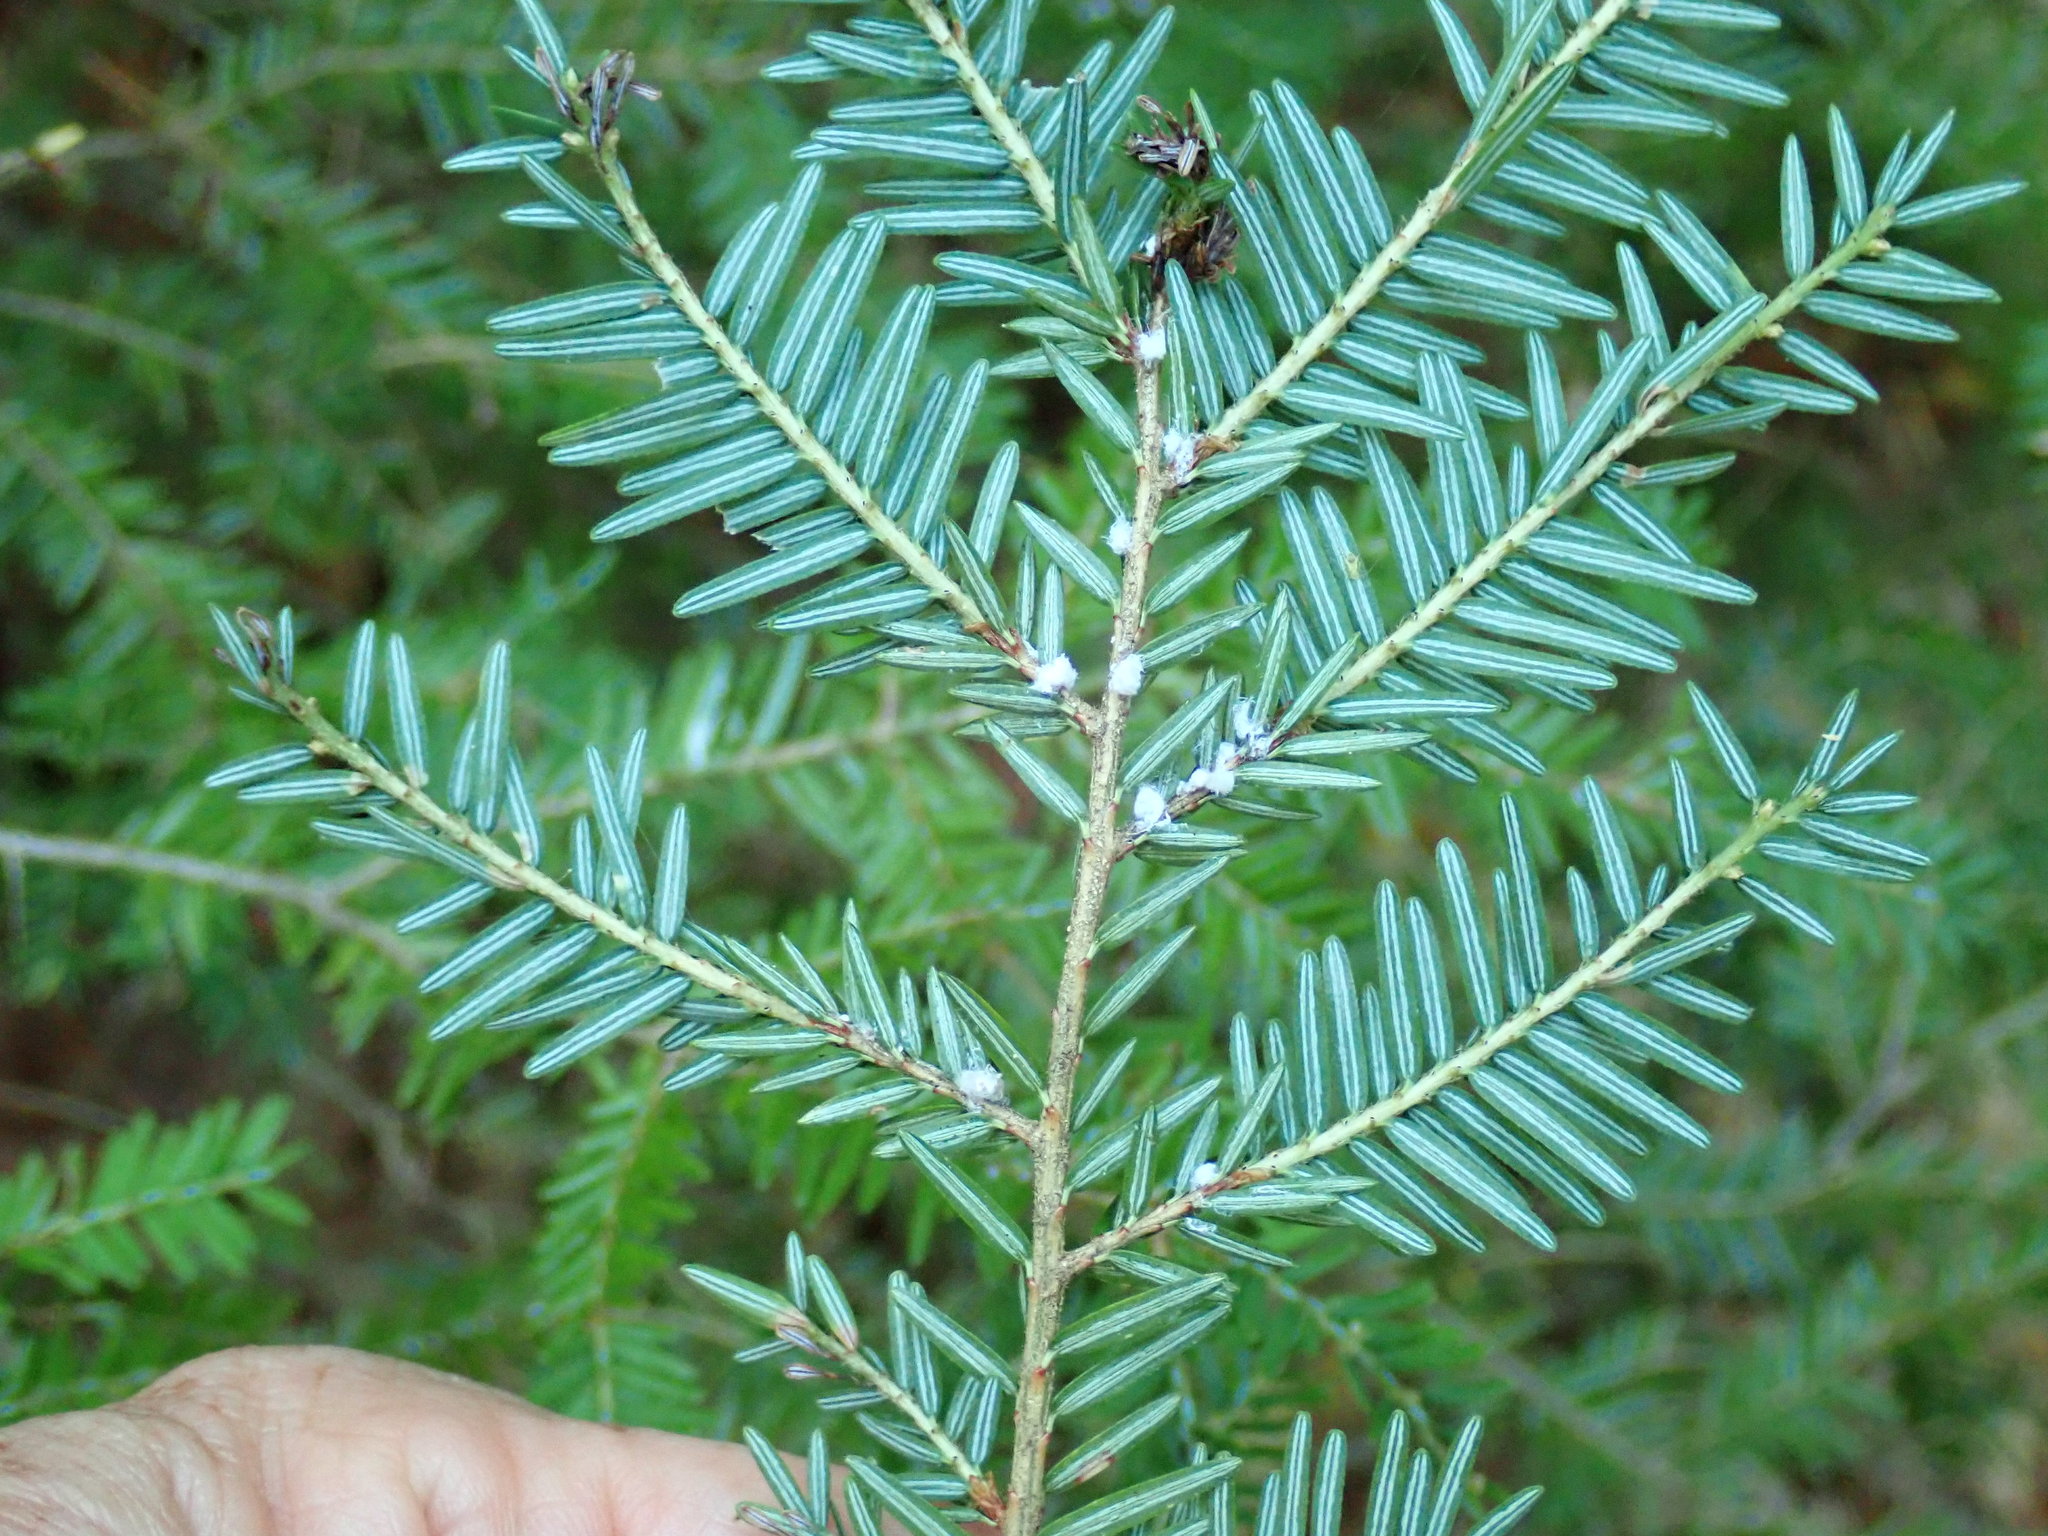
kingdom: Animalia
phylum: Arthropoda
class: Insecta
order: Hemiptera
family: Adelgidae
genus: Adelges
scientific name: Adelges tsugae
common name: Hemlock woolly adelgid
